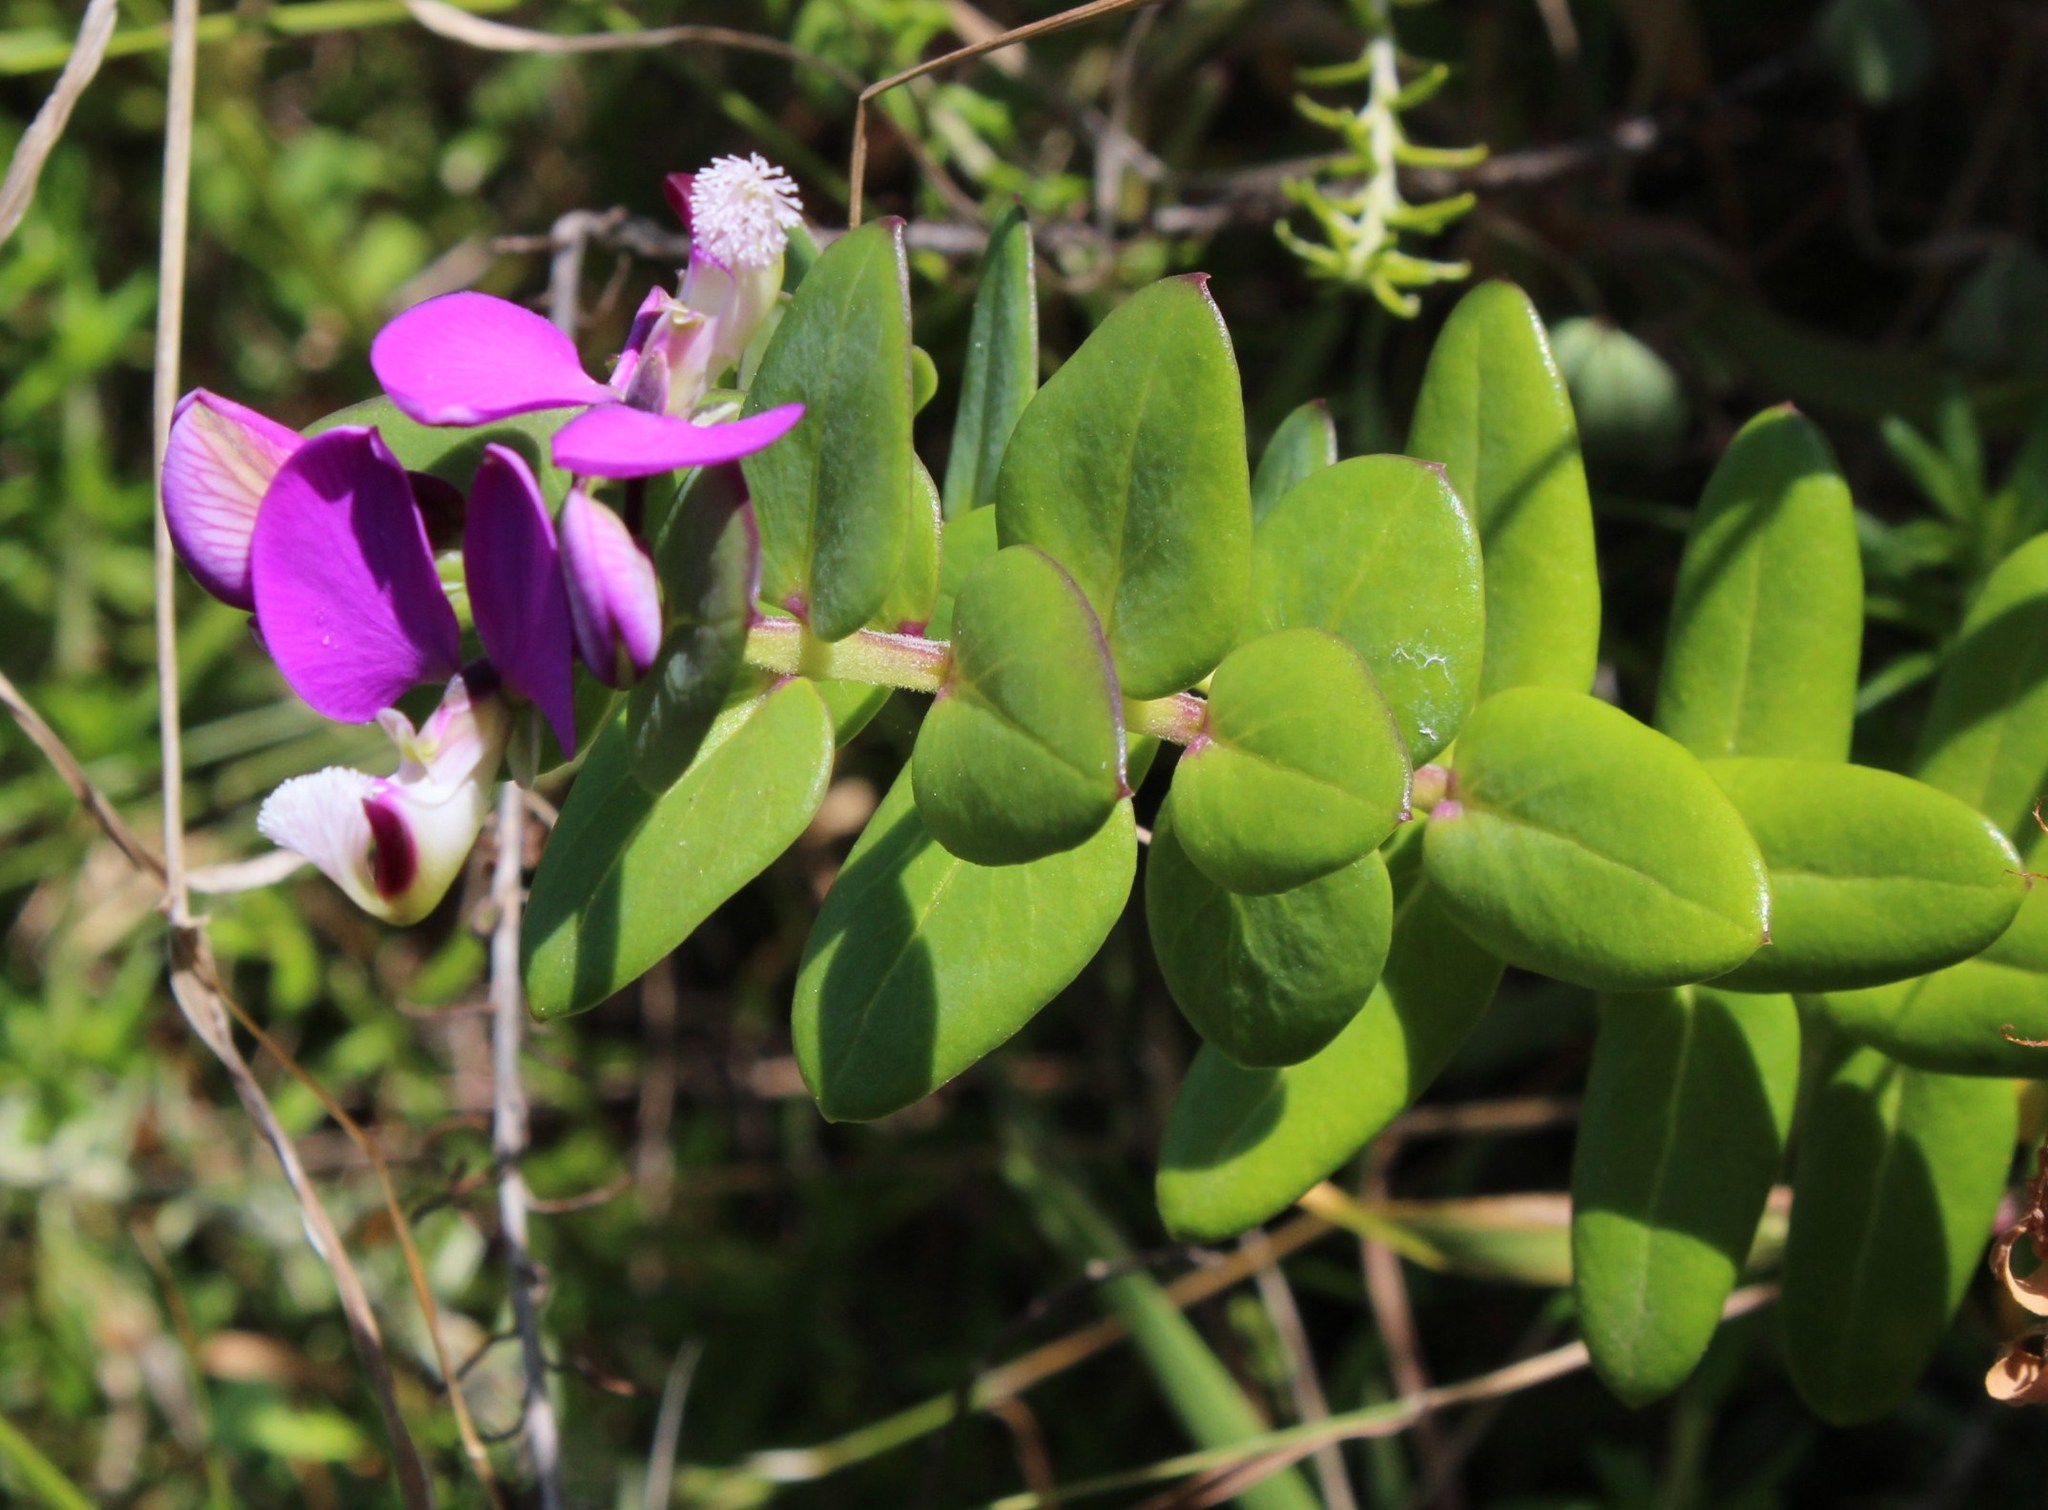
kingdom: Plantae
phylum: Tracheophyta
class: Magnoliopsida
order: Fabales
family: Polygalaceae
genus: Polygala
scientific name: Polygala fruticosa
